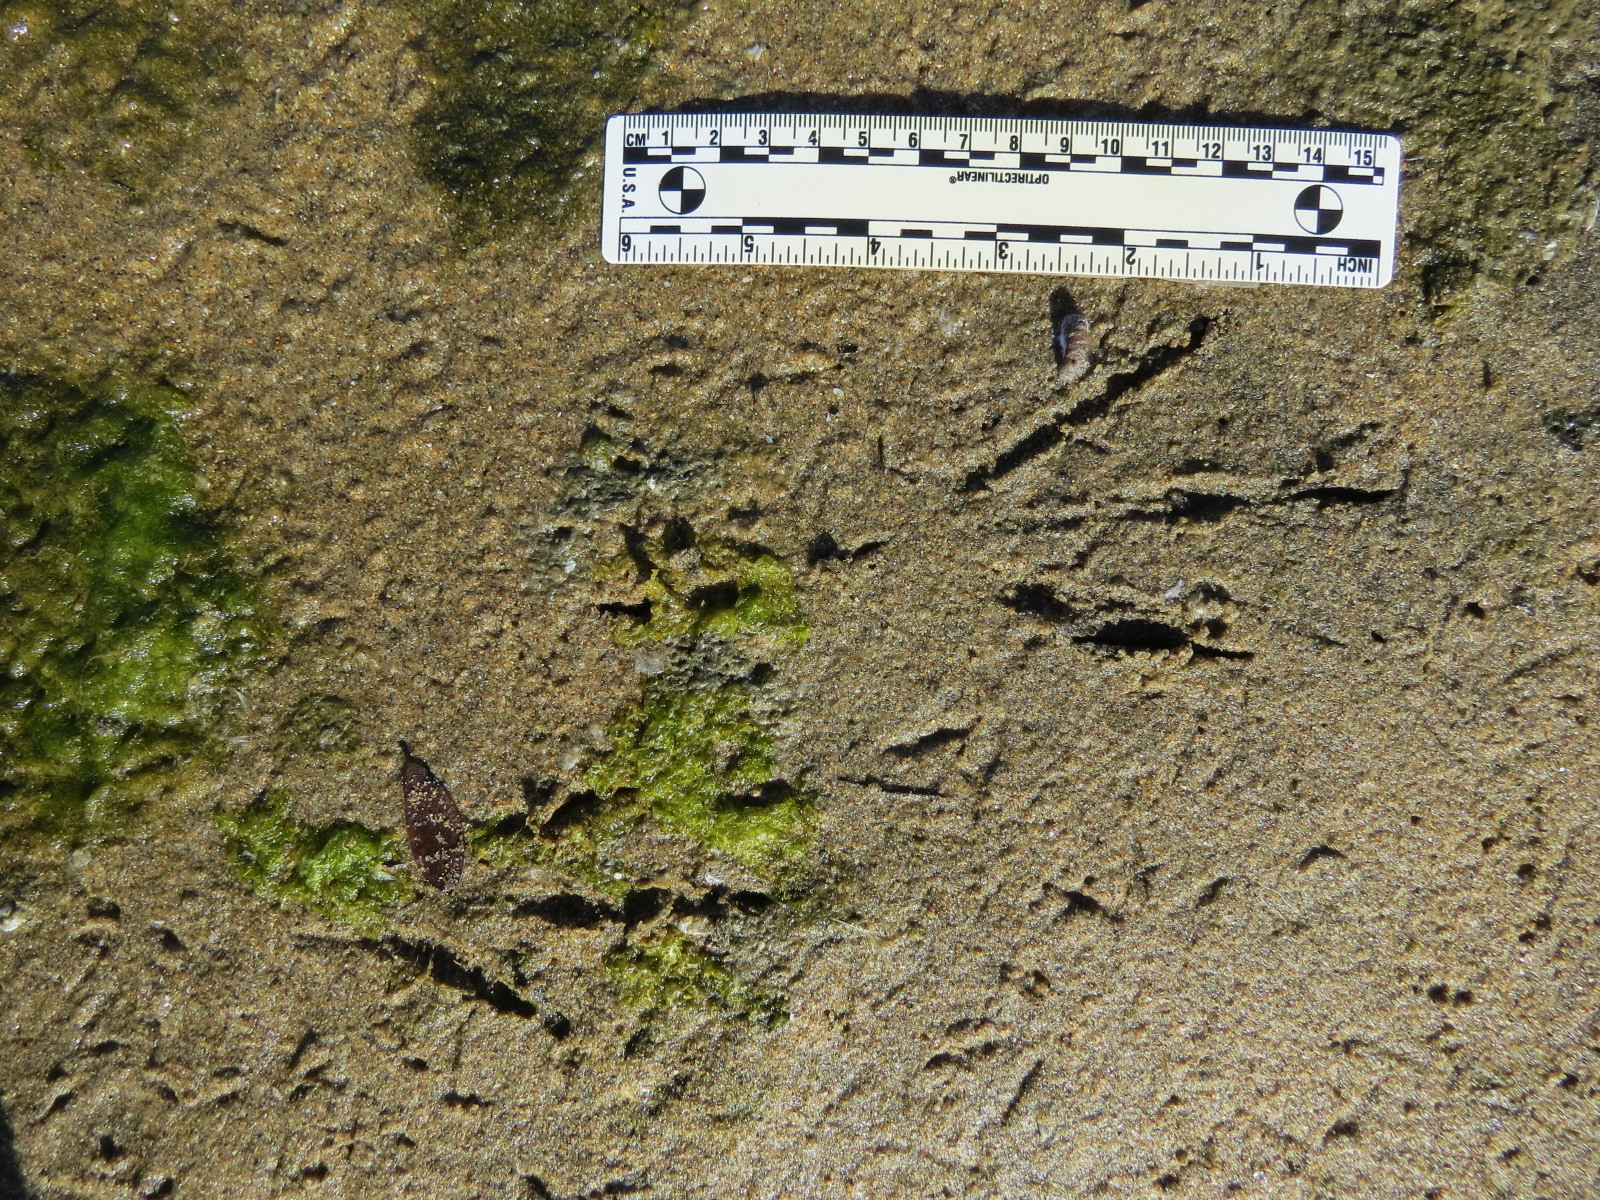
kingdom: Animalia
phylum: Chordata
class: Aves
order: Pelecaniformes
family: Ardeidae
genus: Egretta
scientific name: Egretta thula
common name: Snowy egret
